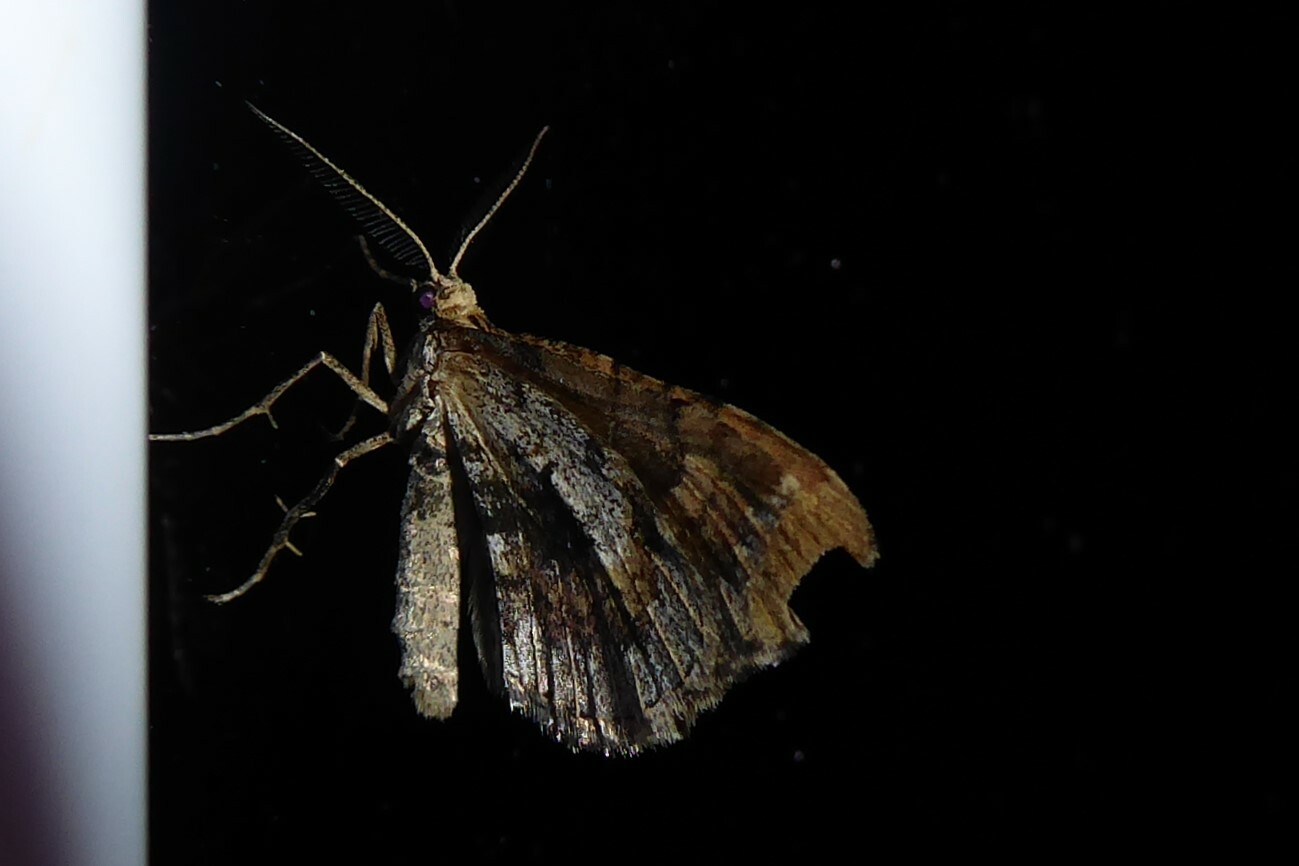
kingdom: Animalia
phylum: Arthropoda
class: Insecta
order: Lepidoptera
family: Geometridae
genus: Asaphodes
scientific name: Asaphodes aegrota
